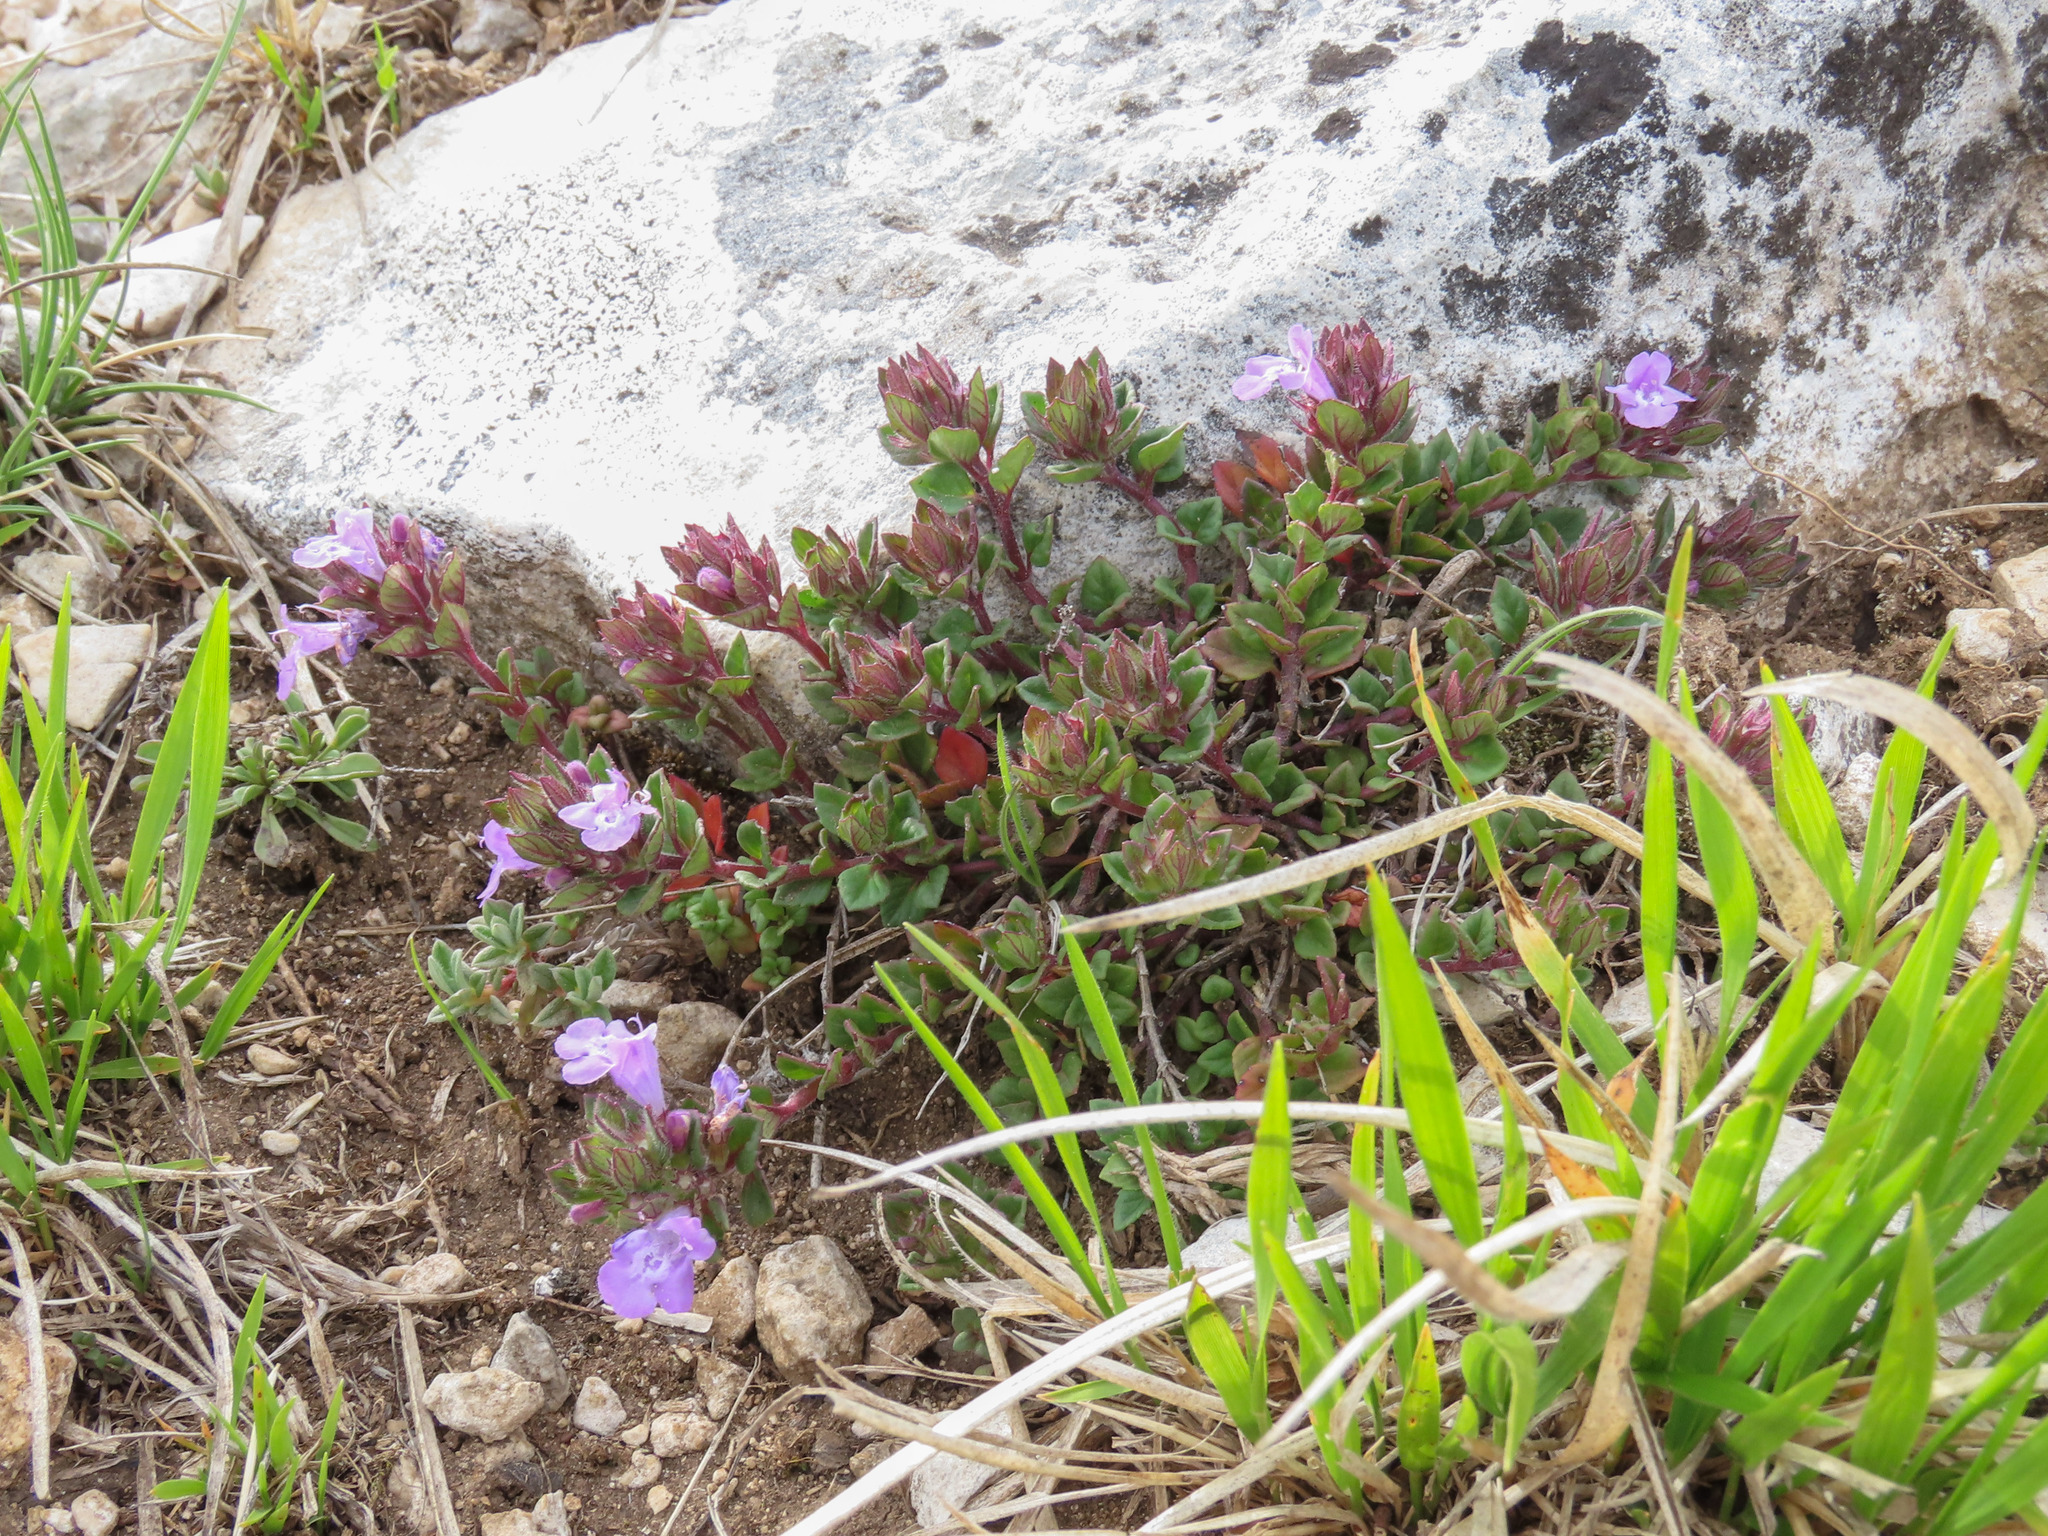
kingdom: Plantae
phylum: Tracheophyta
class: Magnoliopsida
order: Lamiales
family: Lamiaceae
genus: Clinopodium
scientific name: Clinopodium alpinum
